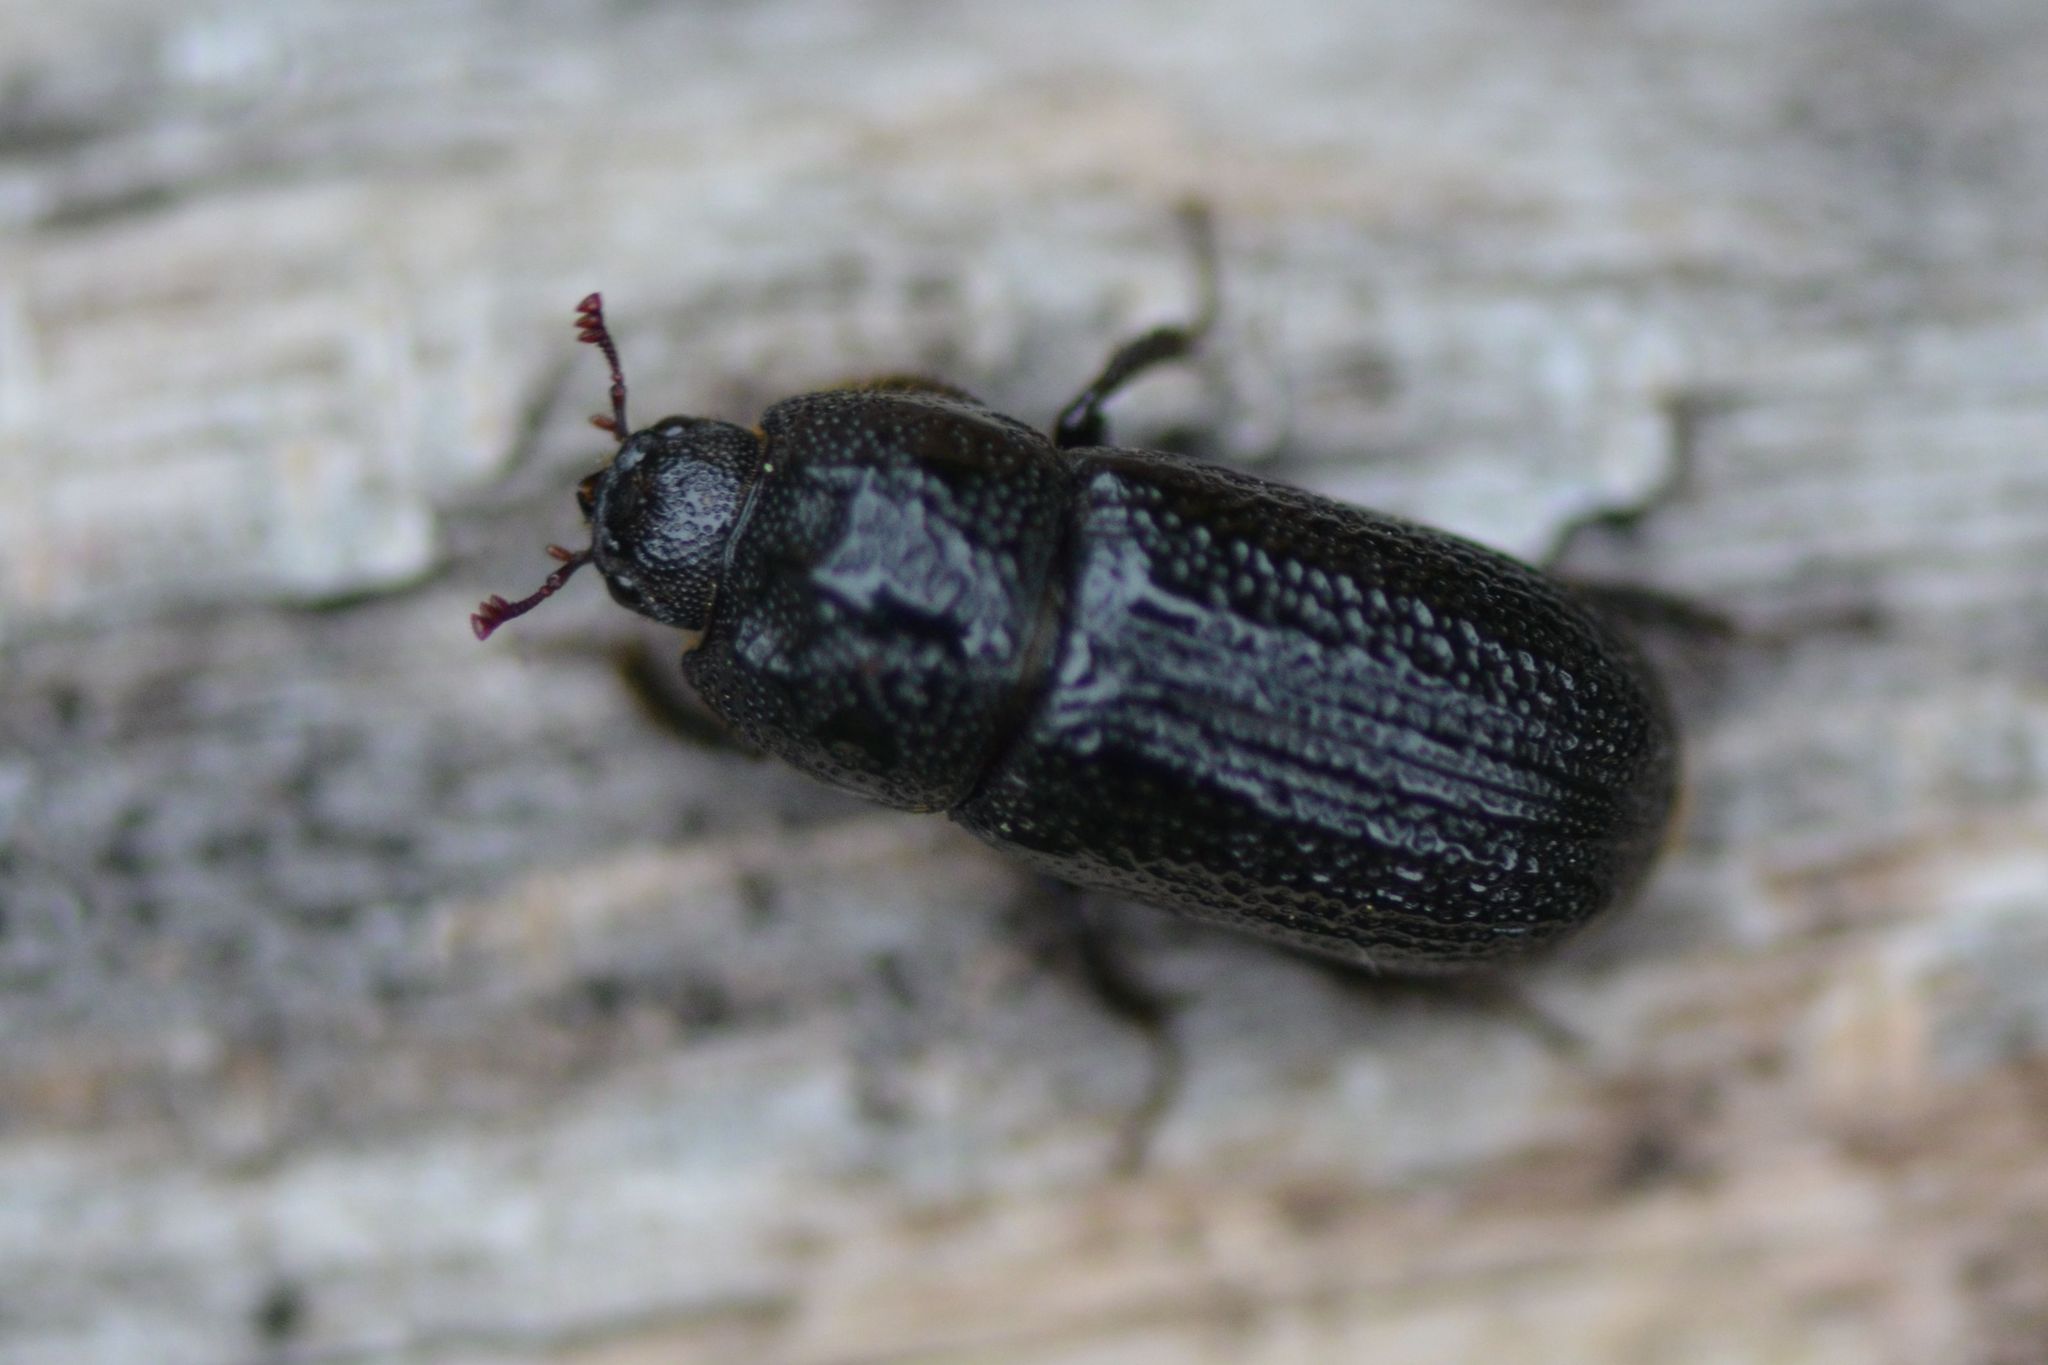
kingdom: Animalia
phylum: Arthropoda
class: Insecta
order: Coleoptera
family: Lucanidae
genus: Sinodendron
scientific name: Sinodendron cylindricum
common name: Rhinoceros beetle
